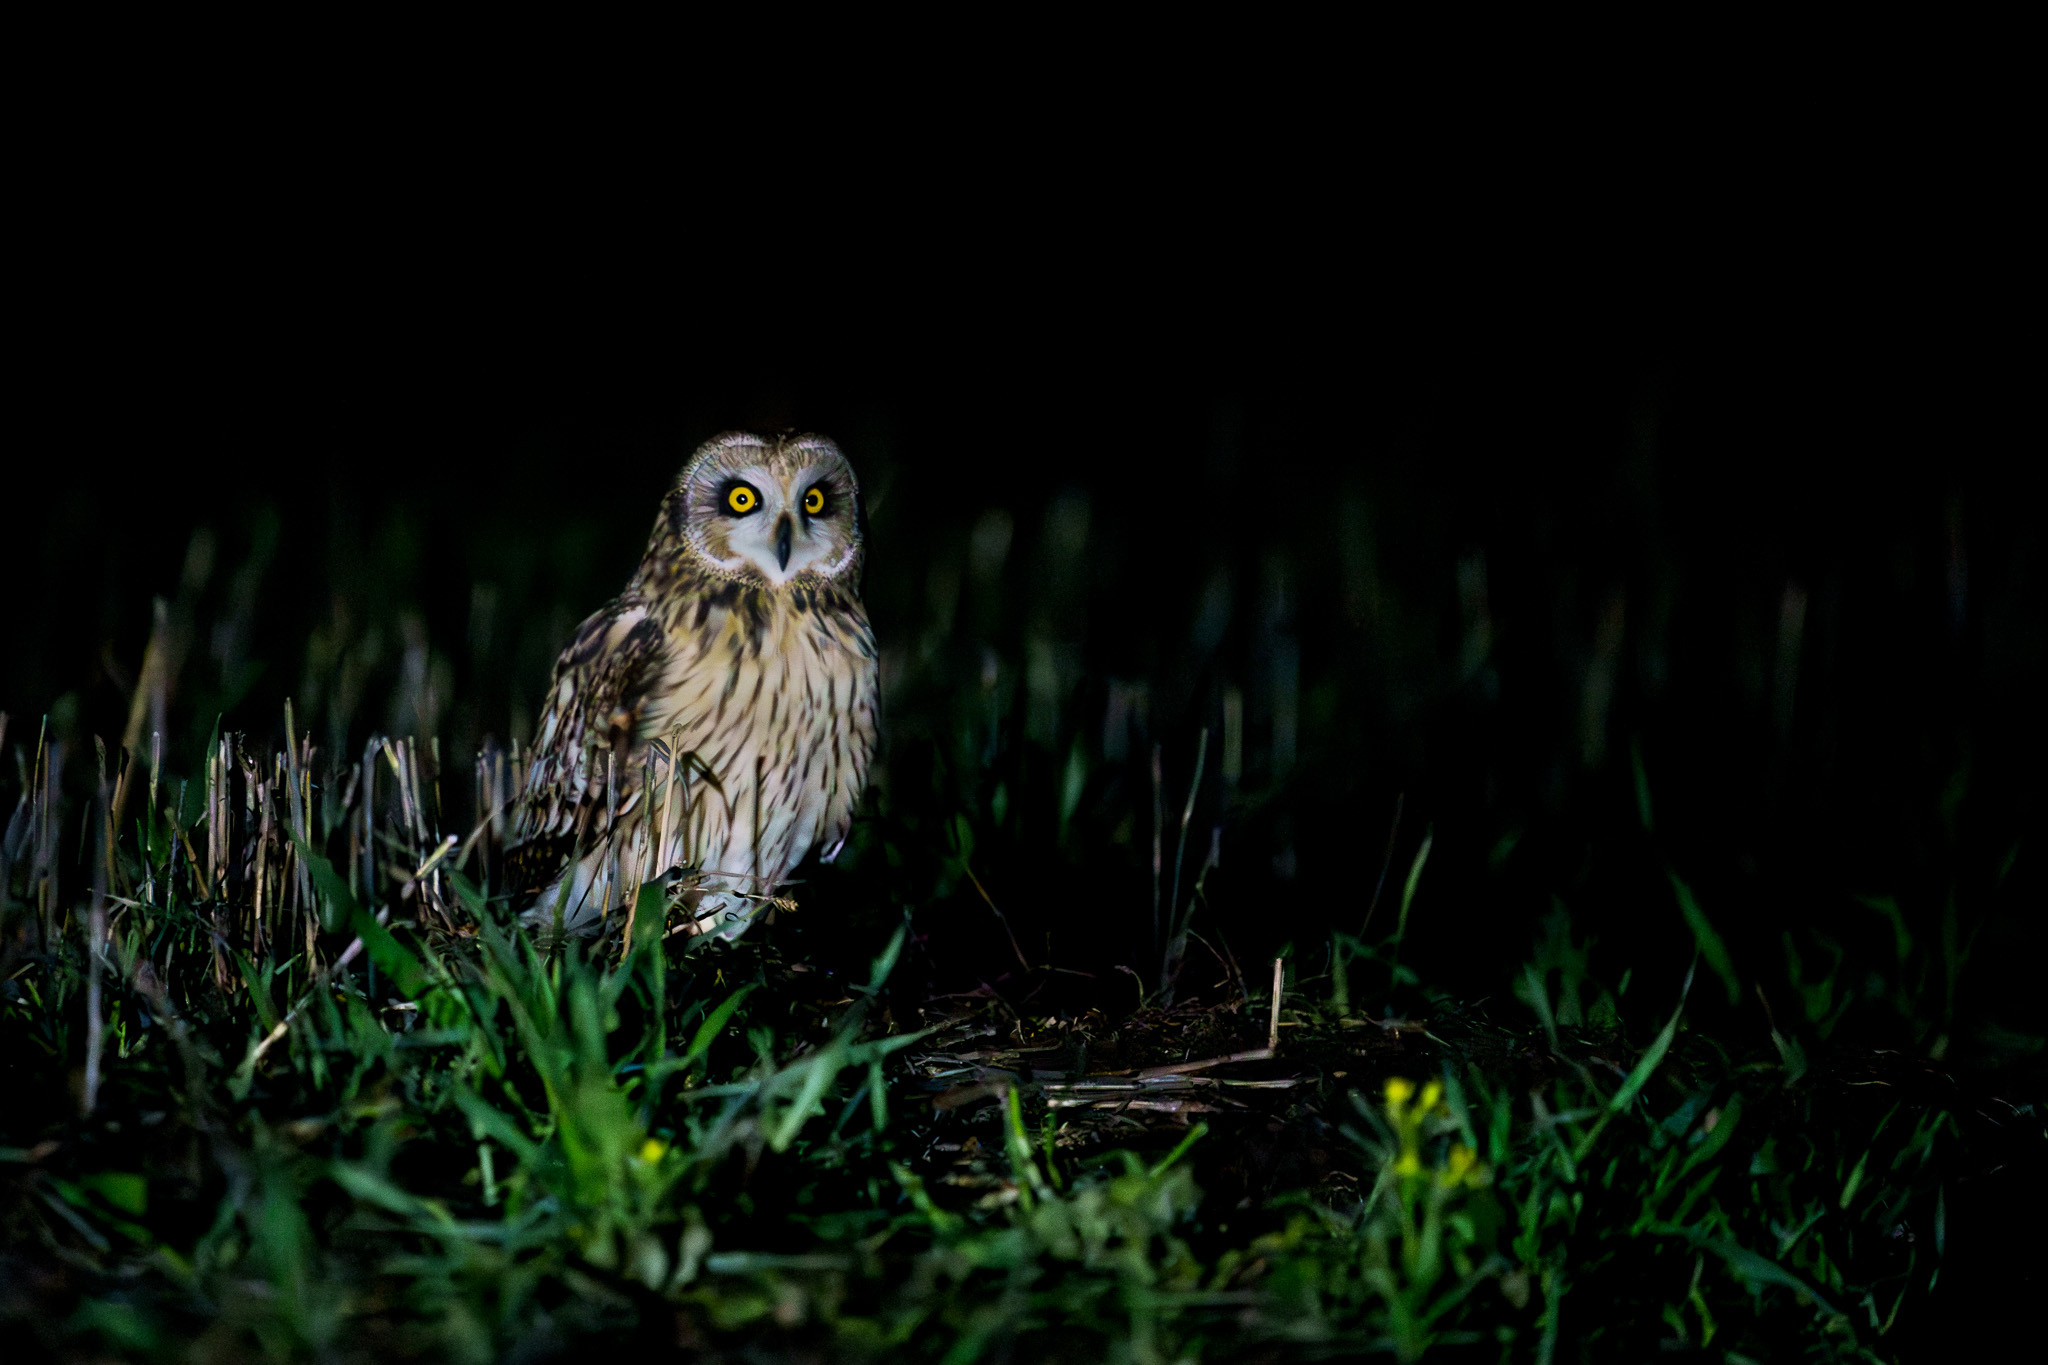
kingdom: Animalia
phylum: Chordata
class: Aves
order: Strigiformes
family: Strigidae
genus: Asio
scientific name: Asio flammeus
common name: Short-eared owl
